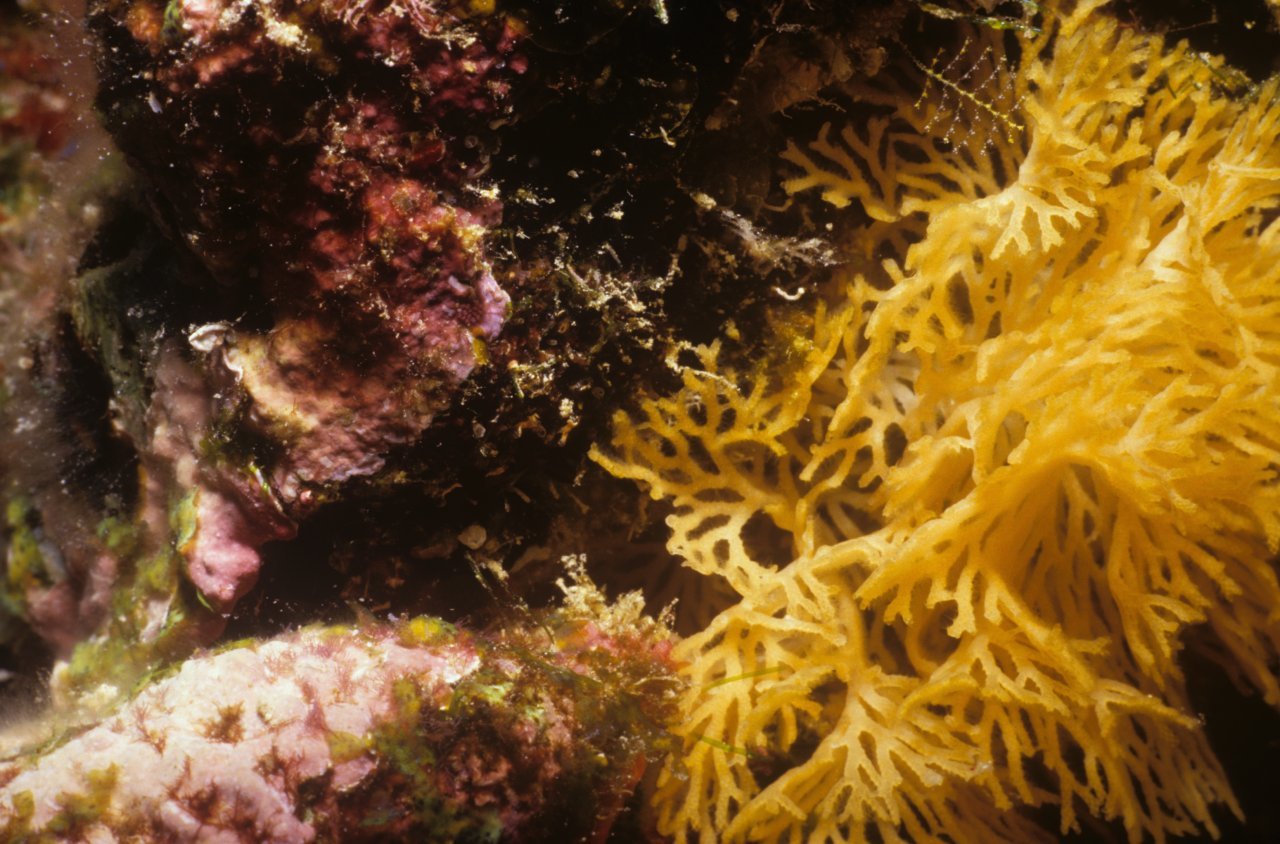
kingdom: Animalia
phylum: Bryozoa
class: Gymnolaemata
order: Cheilostomatida
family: Phidoloporidae
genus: Reteporellina
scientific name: Reteporellina denticulata
